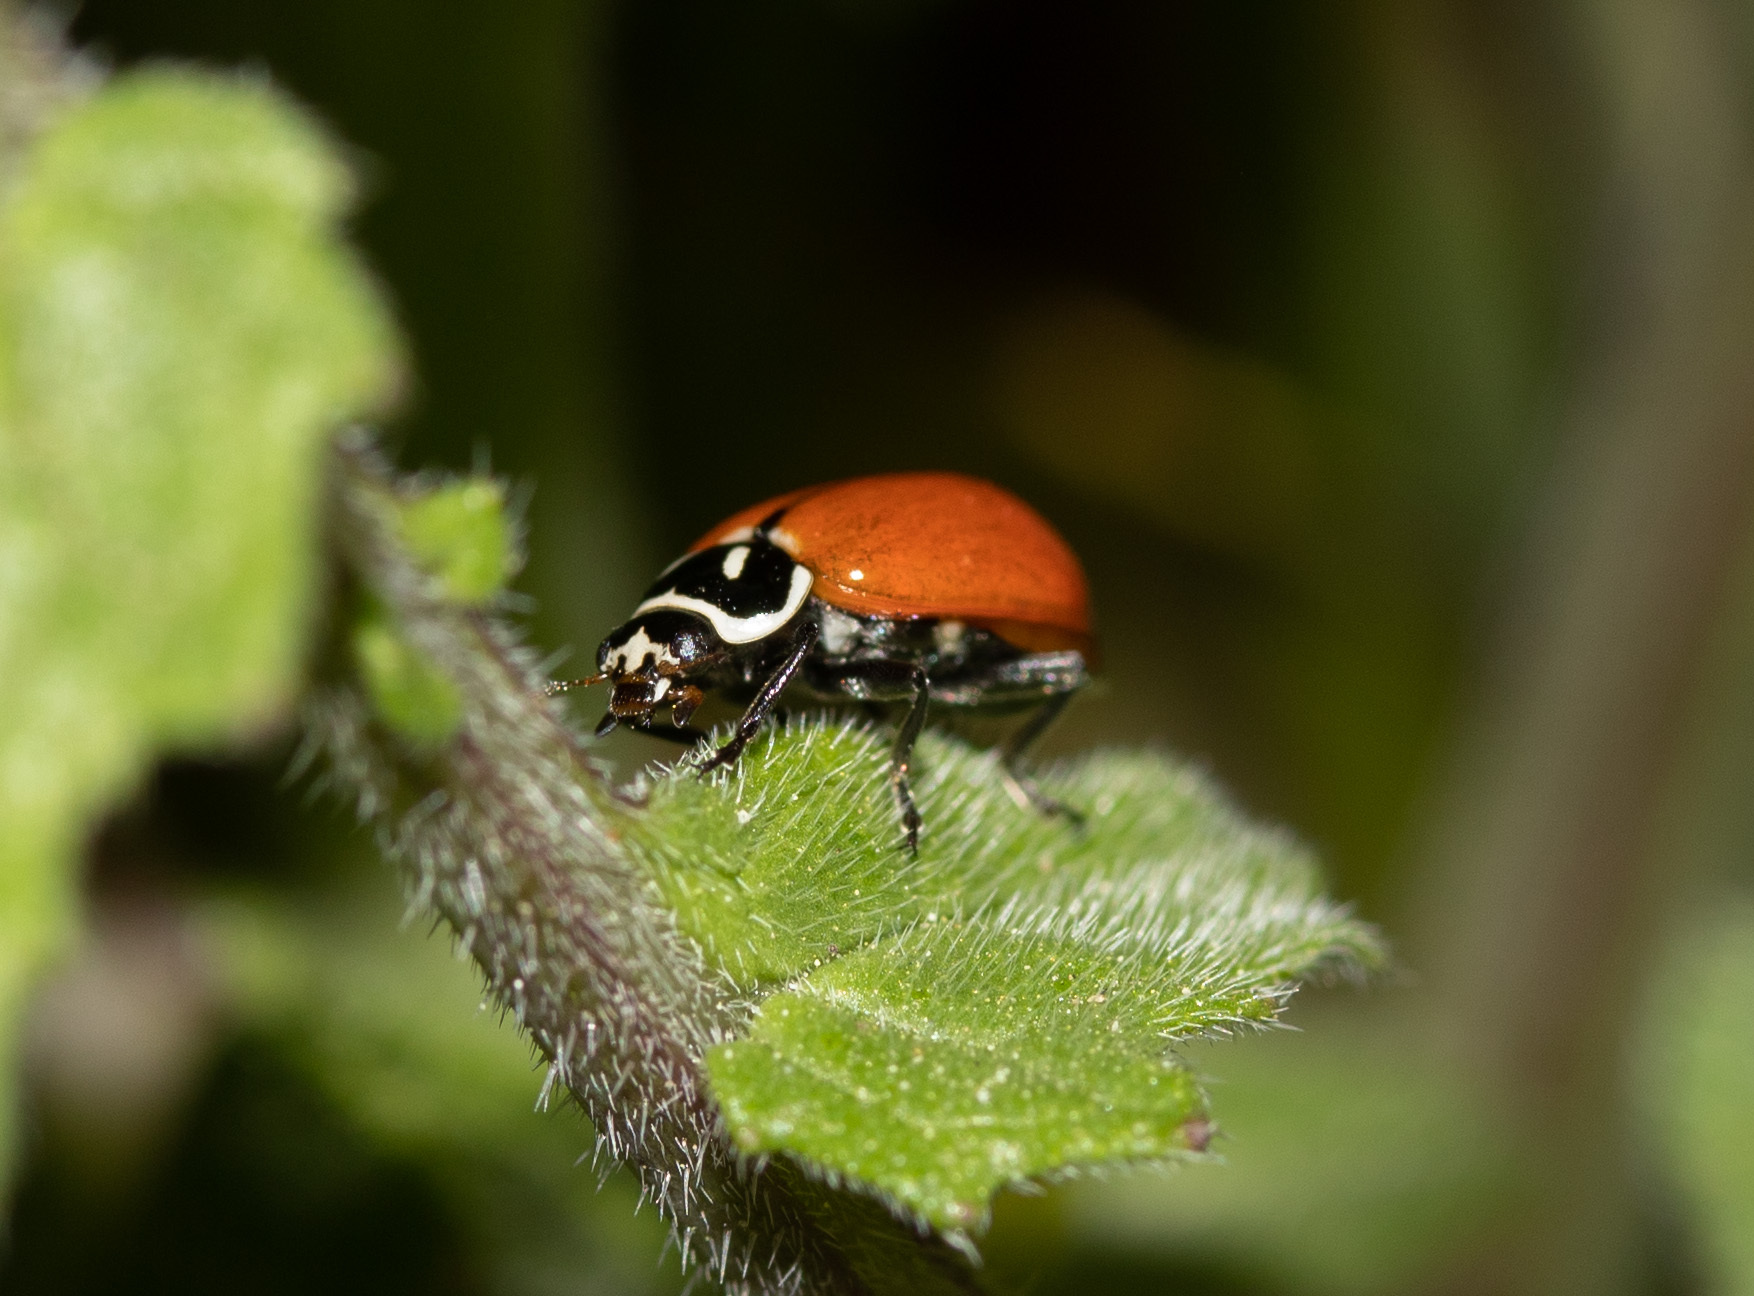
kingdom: Animalia
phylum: Arthropoda
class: Insecta
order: Coleoptera
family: Coccinellidae
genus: Hippodamia
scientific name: Hippodamia convergens
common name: Convergent lady beetle
